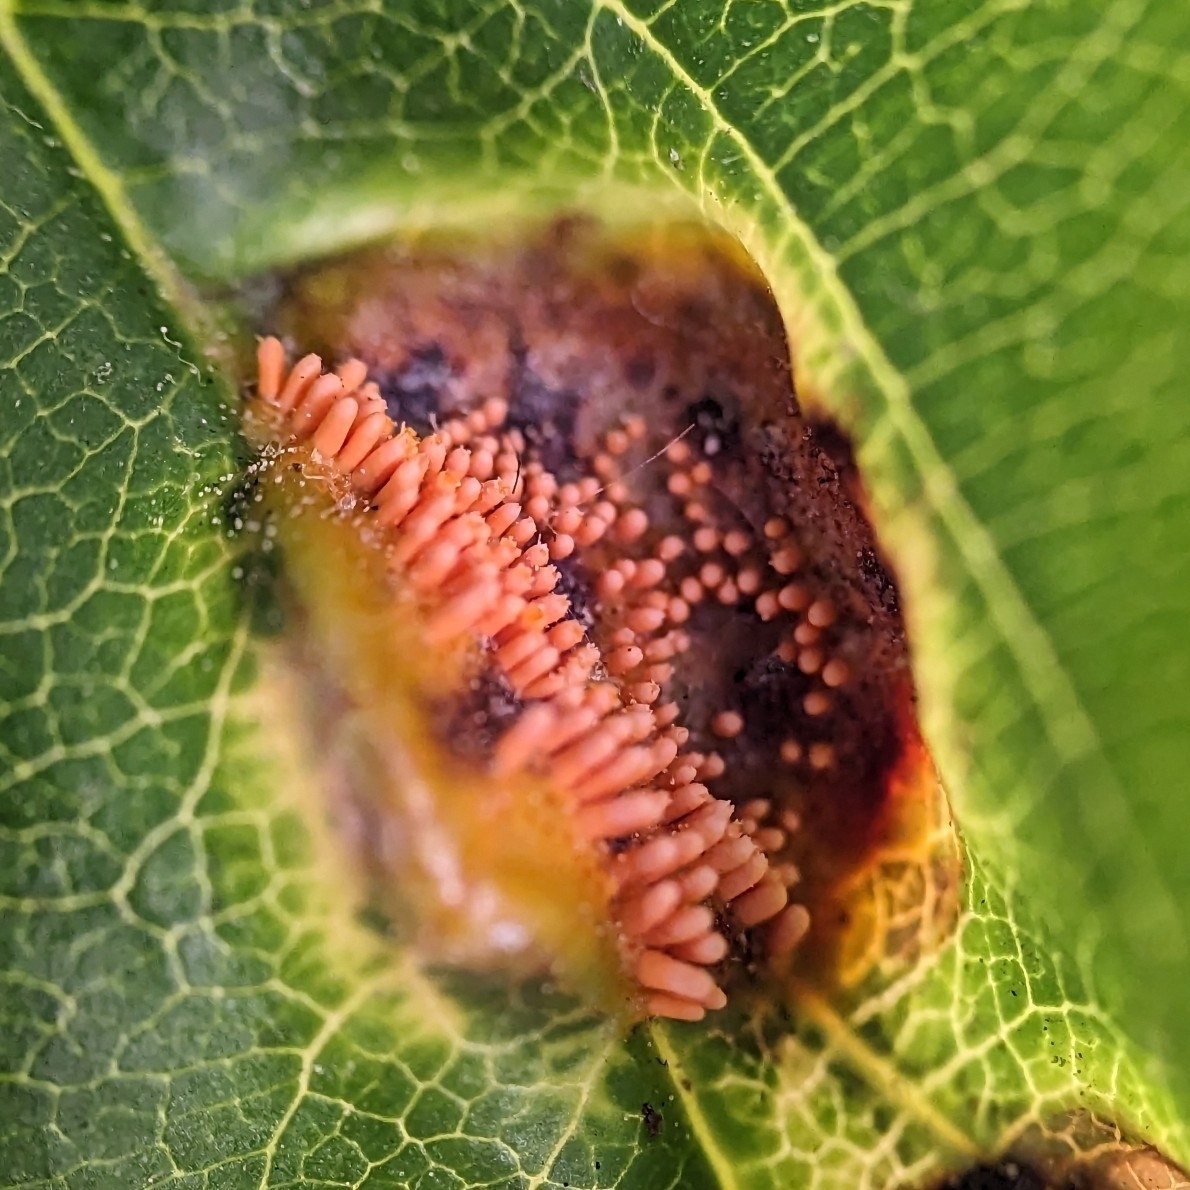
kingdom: Fungi
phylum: Basidiomycota
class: Pucciniomycetes
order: Pucciniales
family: Pucciniaceae
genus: Puccinia
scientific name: Puccinia coronata
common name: Crown rust
